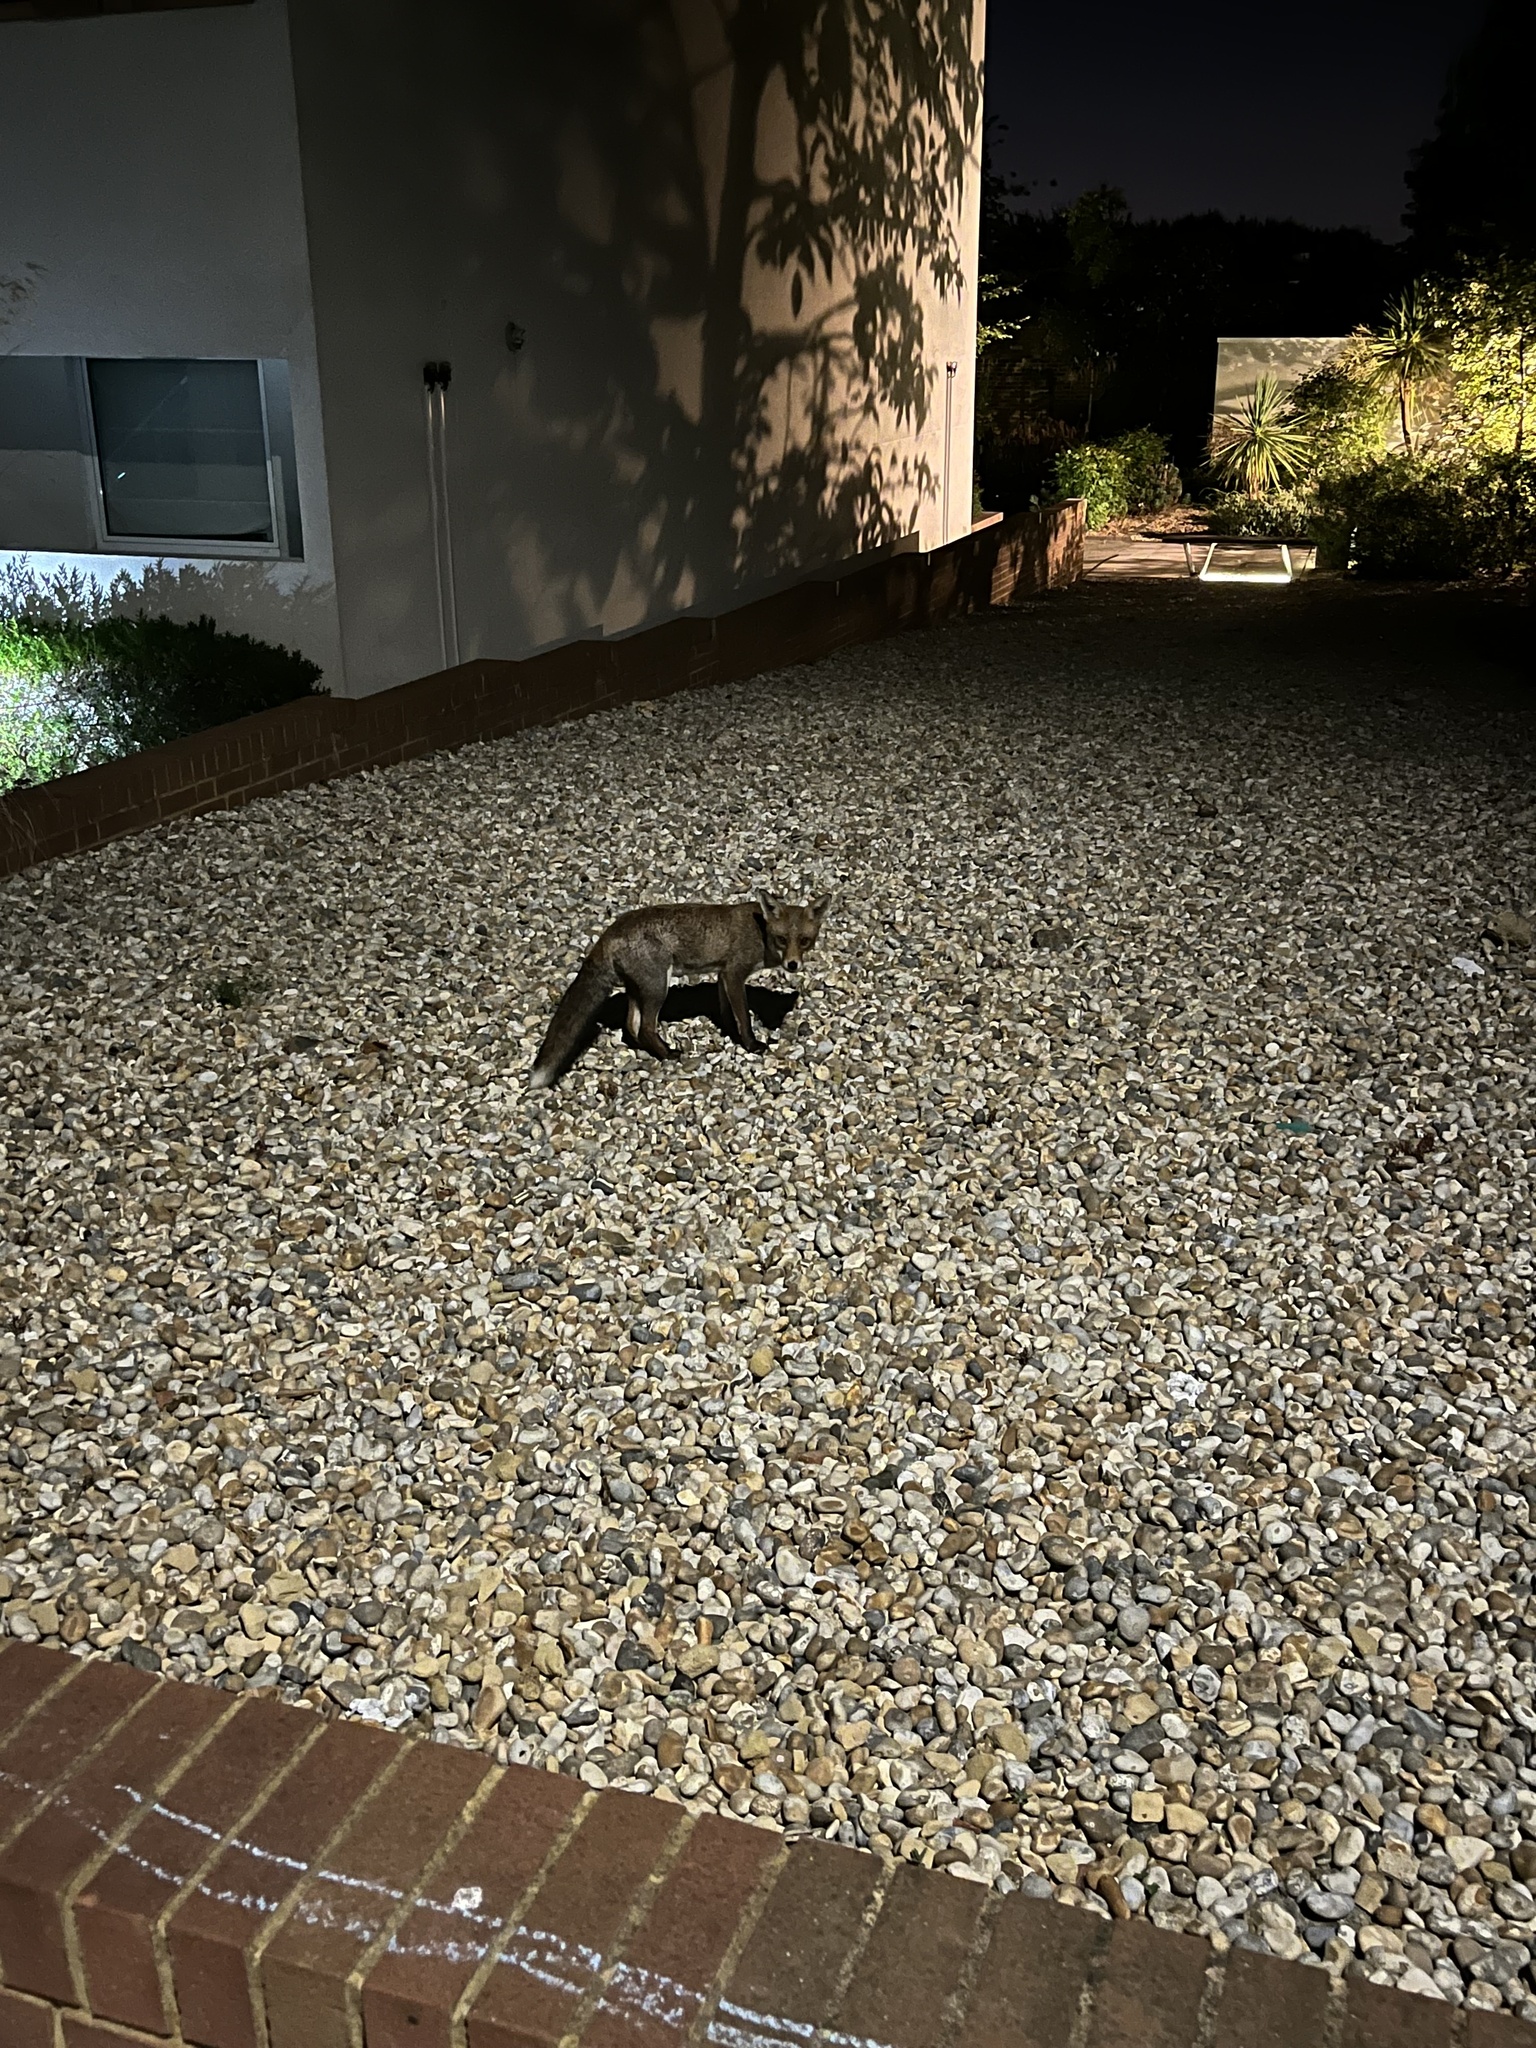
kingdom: Animalia
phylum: Chordata
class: Mammalia
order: Carnivora
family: Canidae
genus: Vulpes
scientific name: Vulpes vulpes
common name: Red fox
